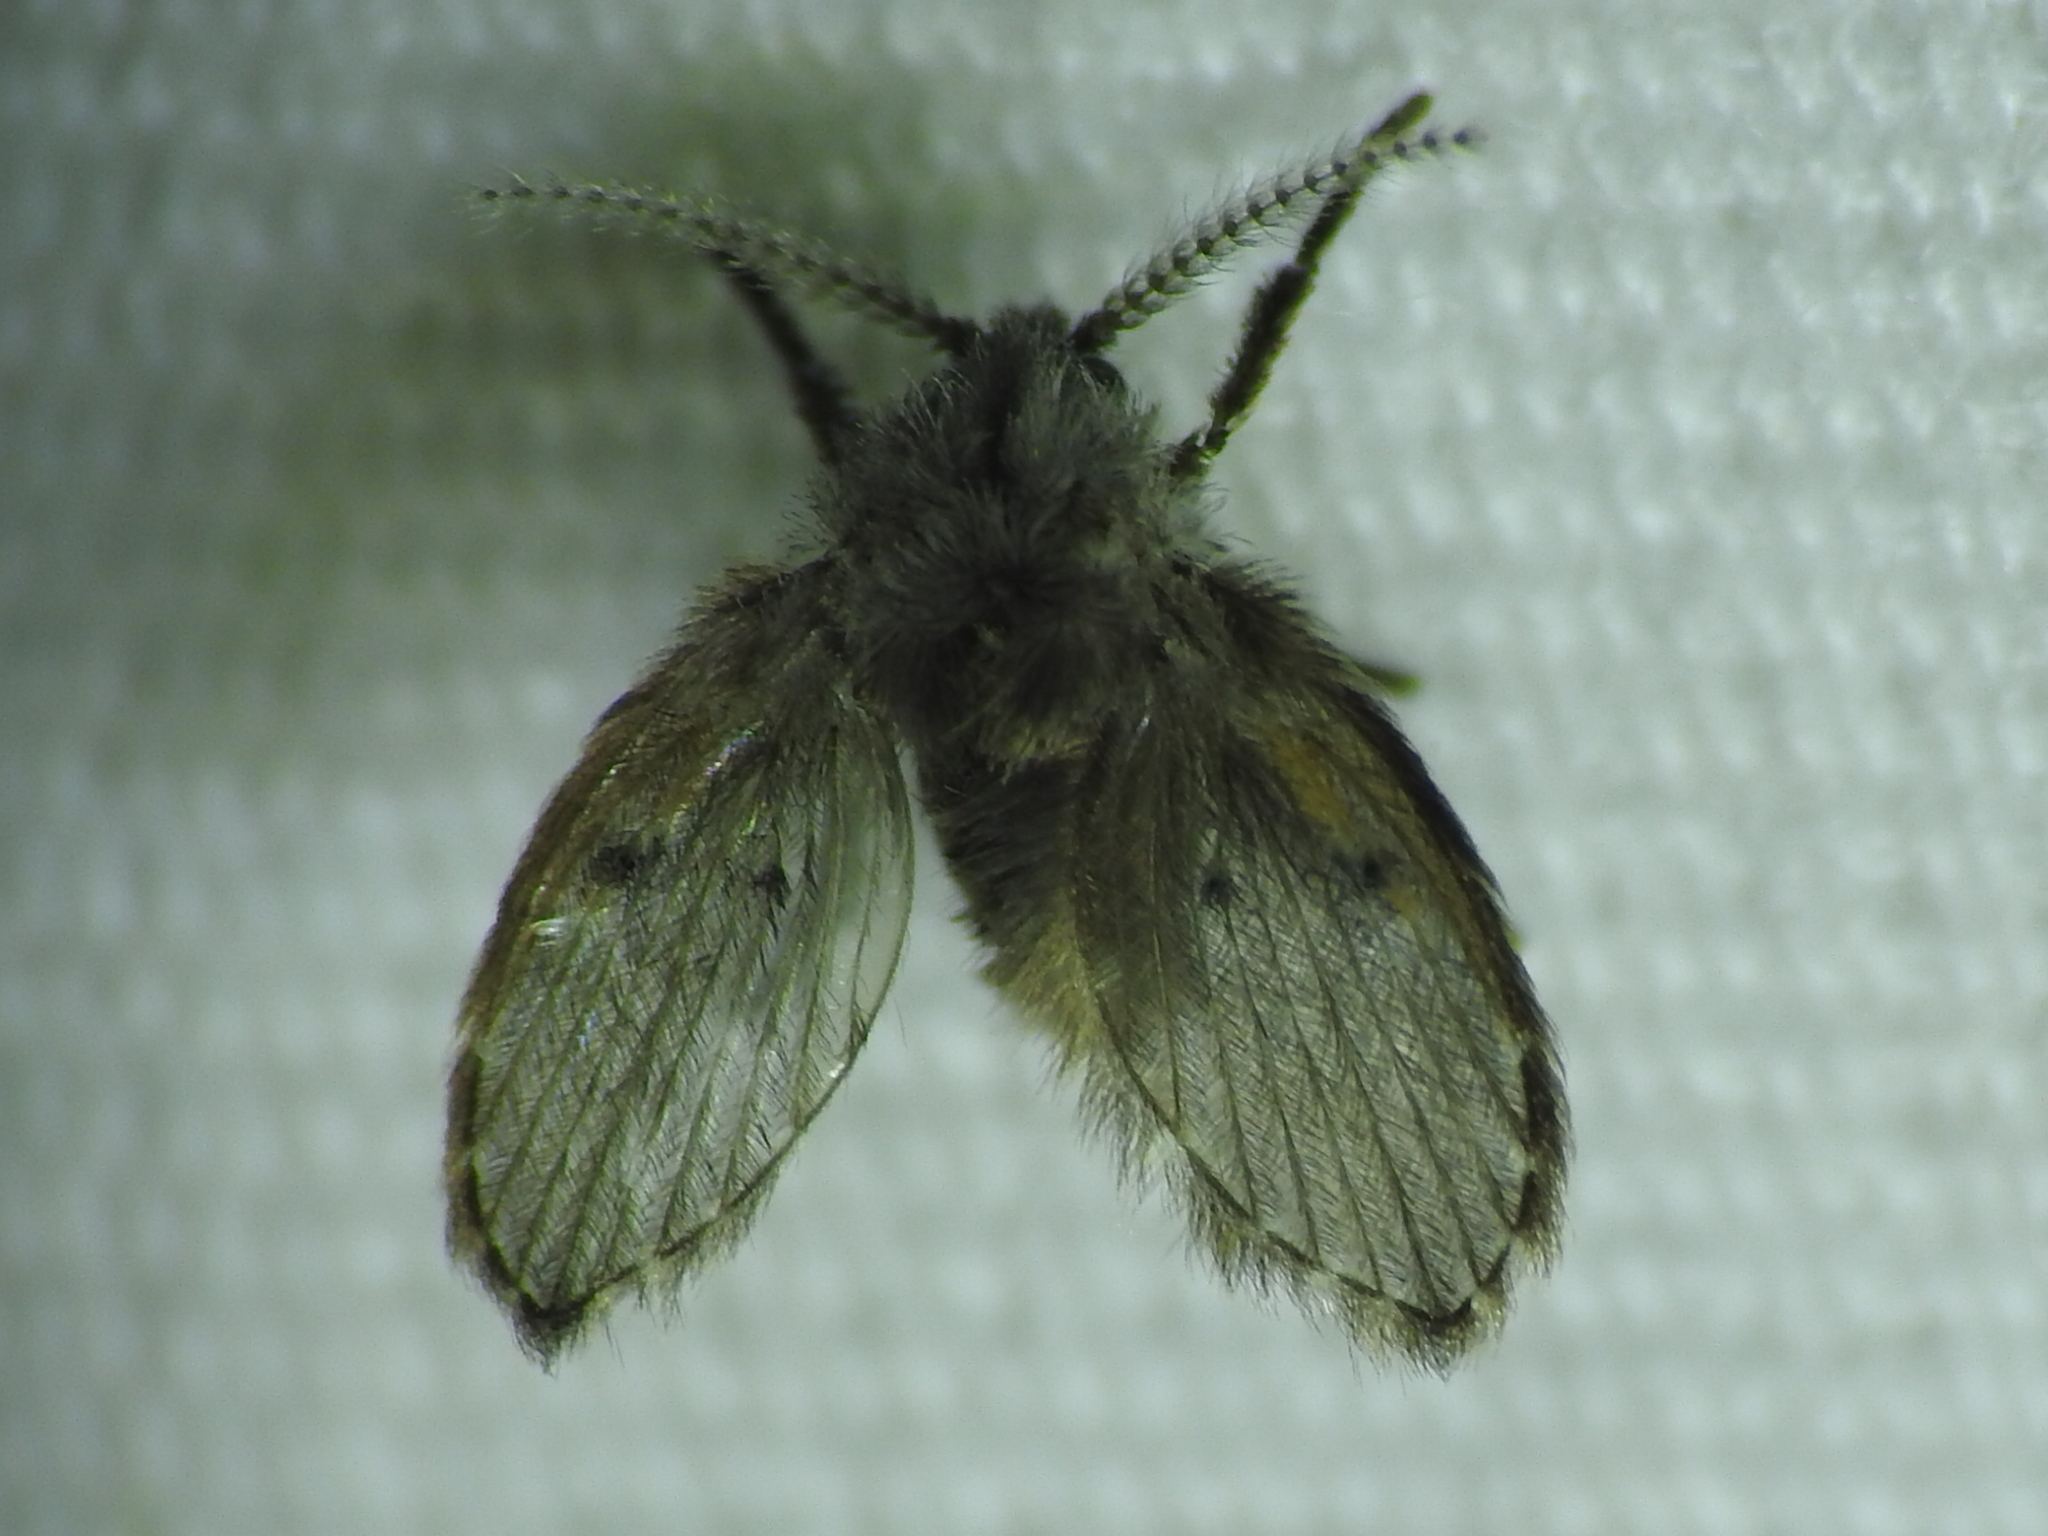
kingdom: Animalia
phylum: Arthropoda
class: Insecta
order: Diptera
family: Psychodidae
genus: Clogmia
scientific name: Clogmia albipunctatus
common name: White-spotted moth fly
